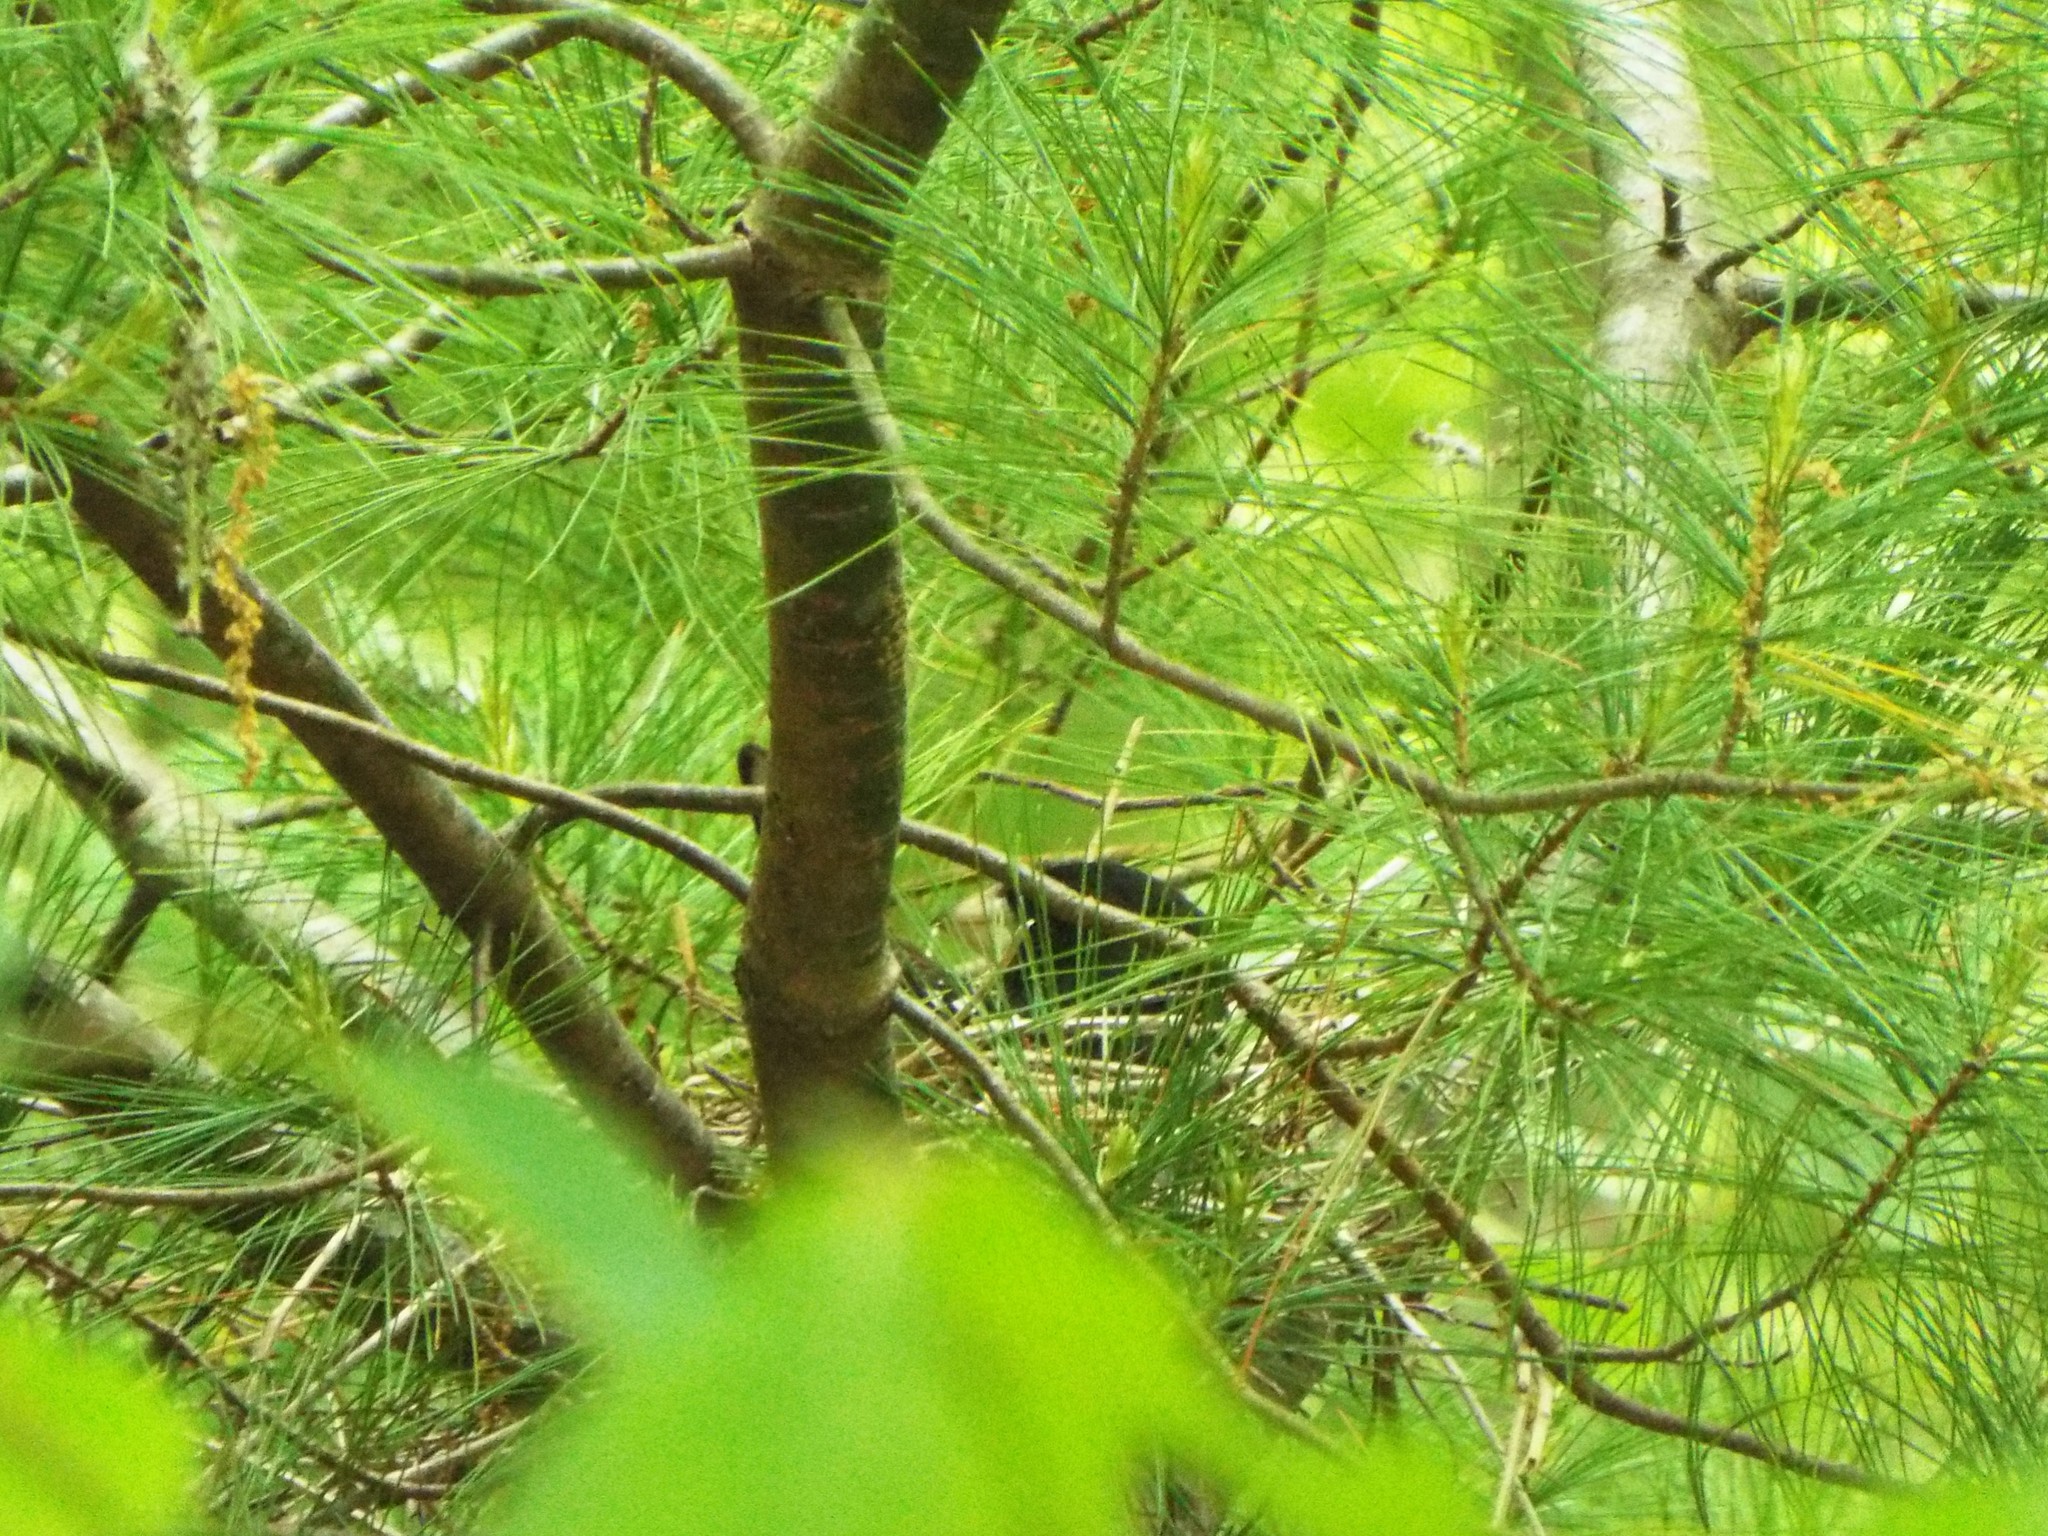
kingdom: Animalia
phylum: Chordata
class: Aves
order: Passeriformes
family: Cardinalidae
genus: Pheucticus
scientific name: Pheucticus ludovicianus
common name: Rose-breasted grosbeak
